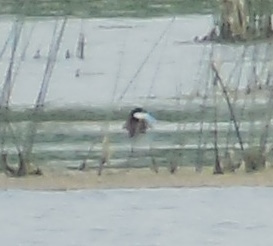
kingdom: Animalia
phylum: Chordata
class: Aves
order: Anseriformes
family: Anatidae
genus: Oxyura
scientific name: Oxyura jamaicensis
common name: Ruddy duck
